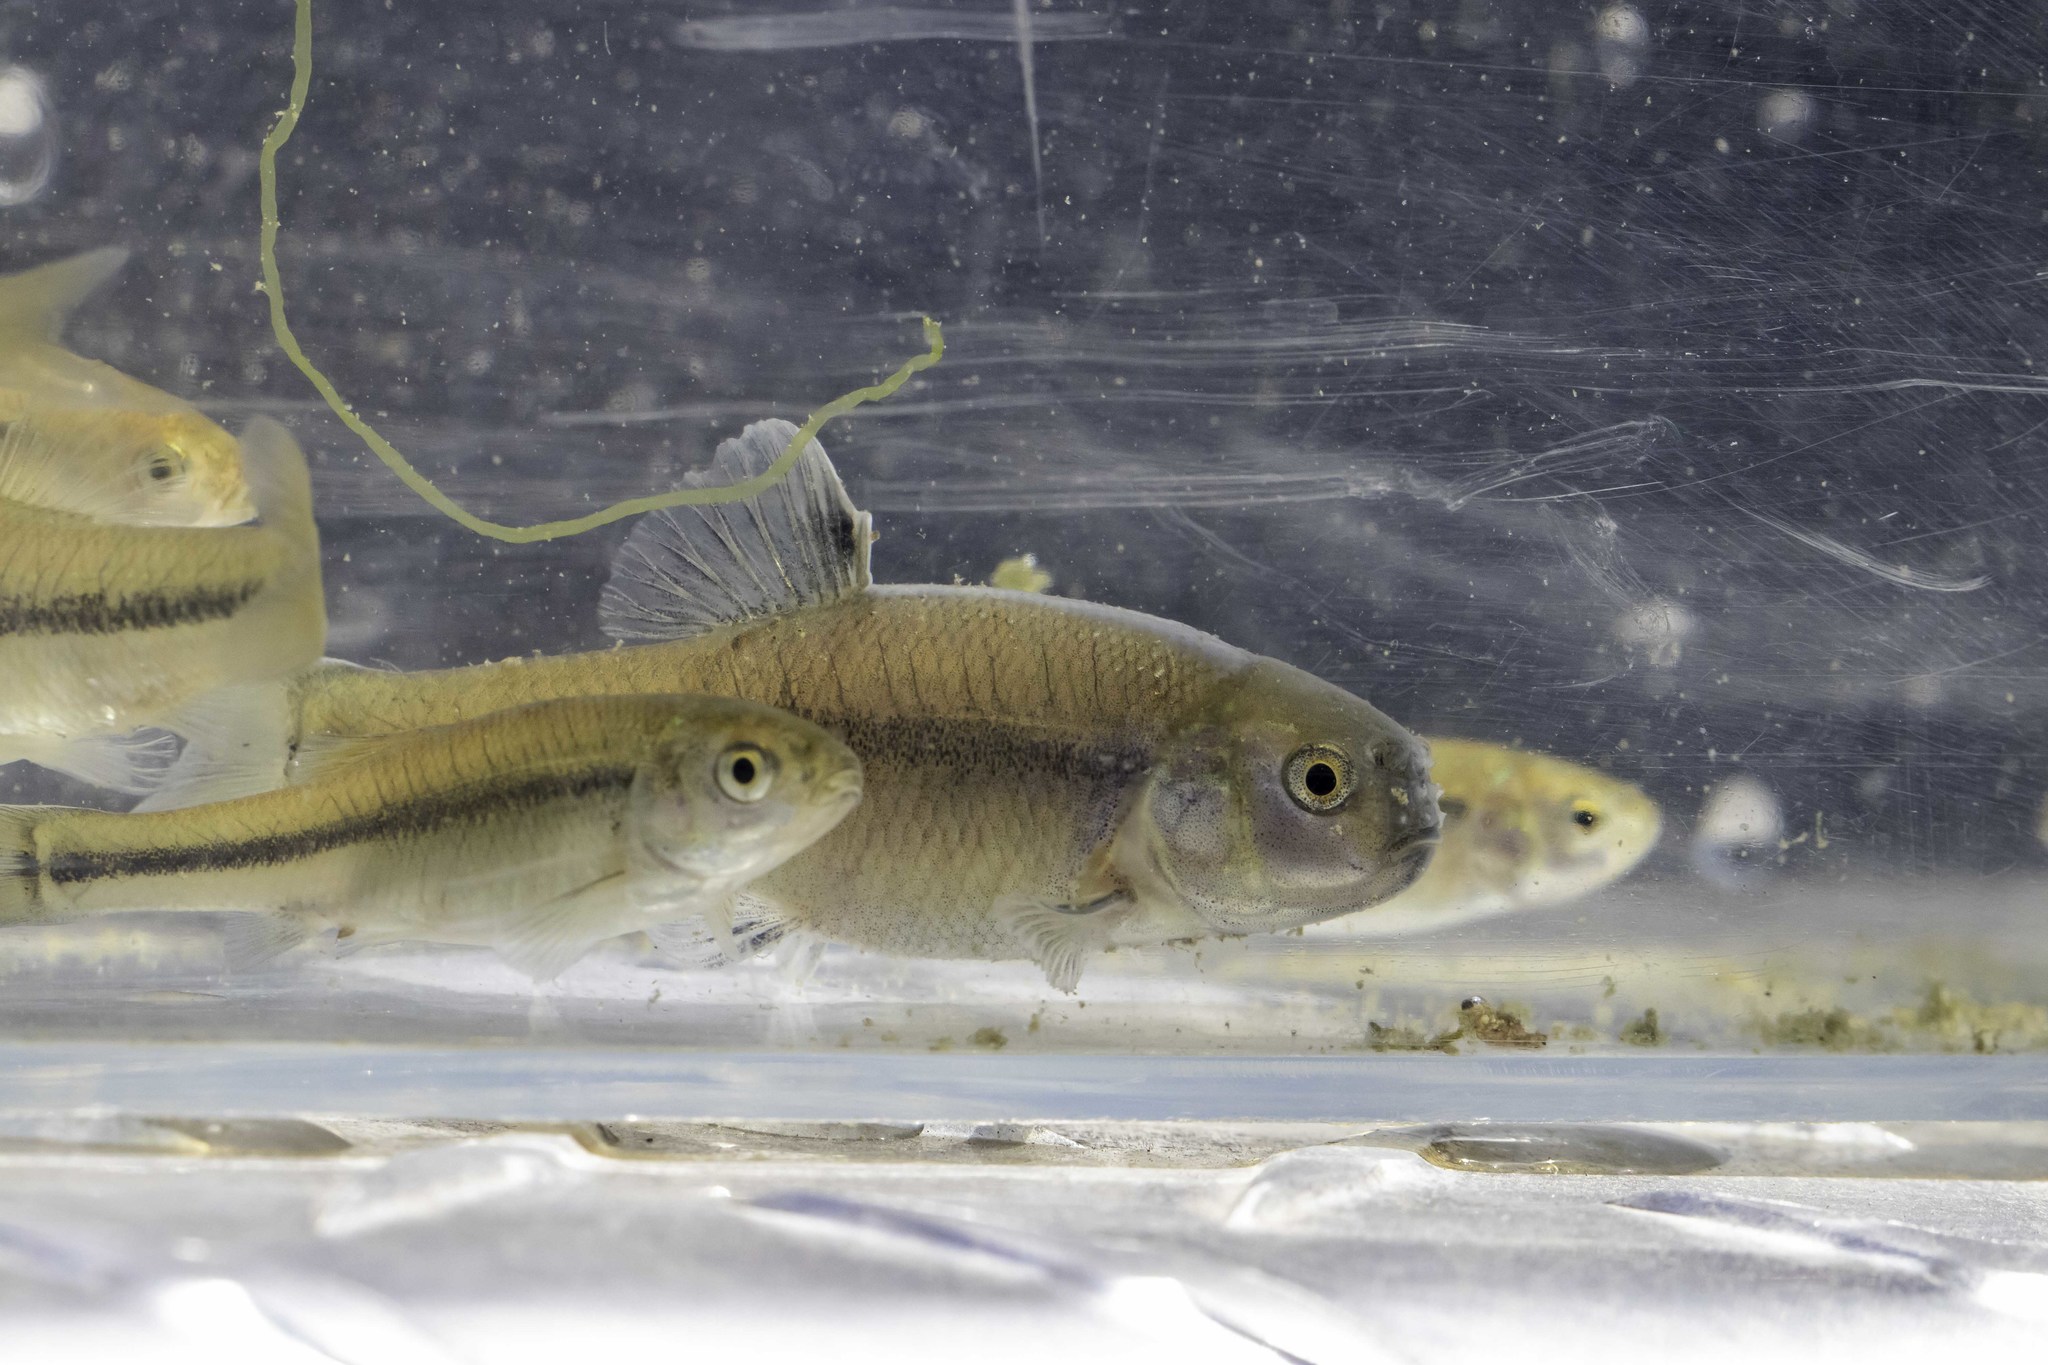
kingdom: Animalia
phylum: Chordata
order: Cypriniformes
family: Cyprinidae
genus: Pimephales
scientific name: Pimephales promelas
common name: Fathead minnow
